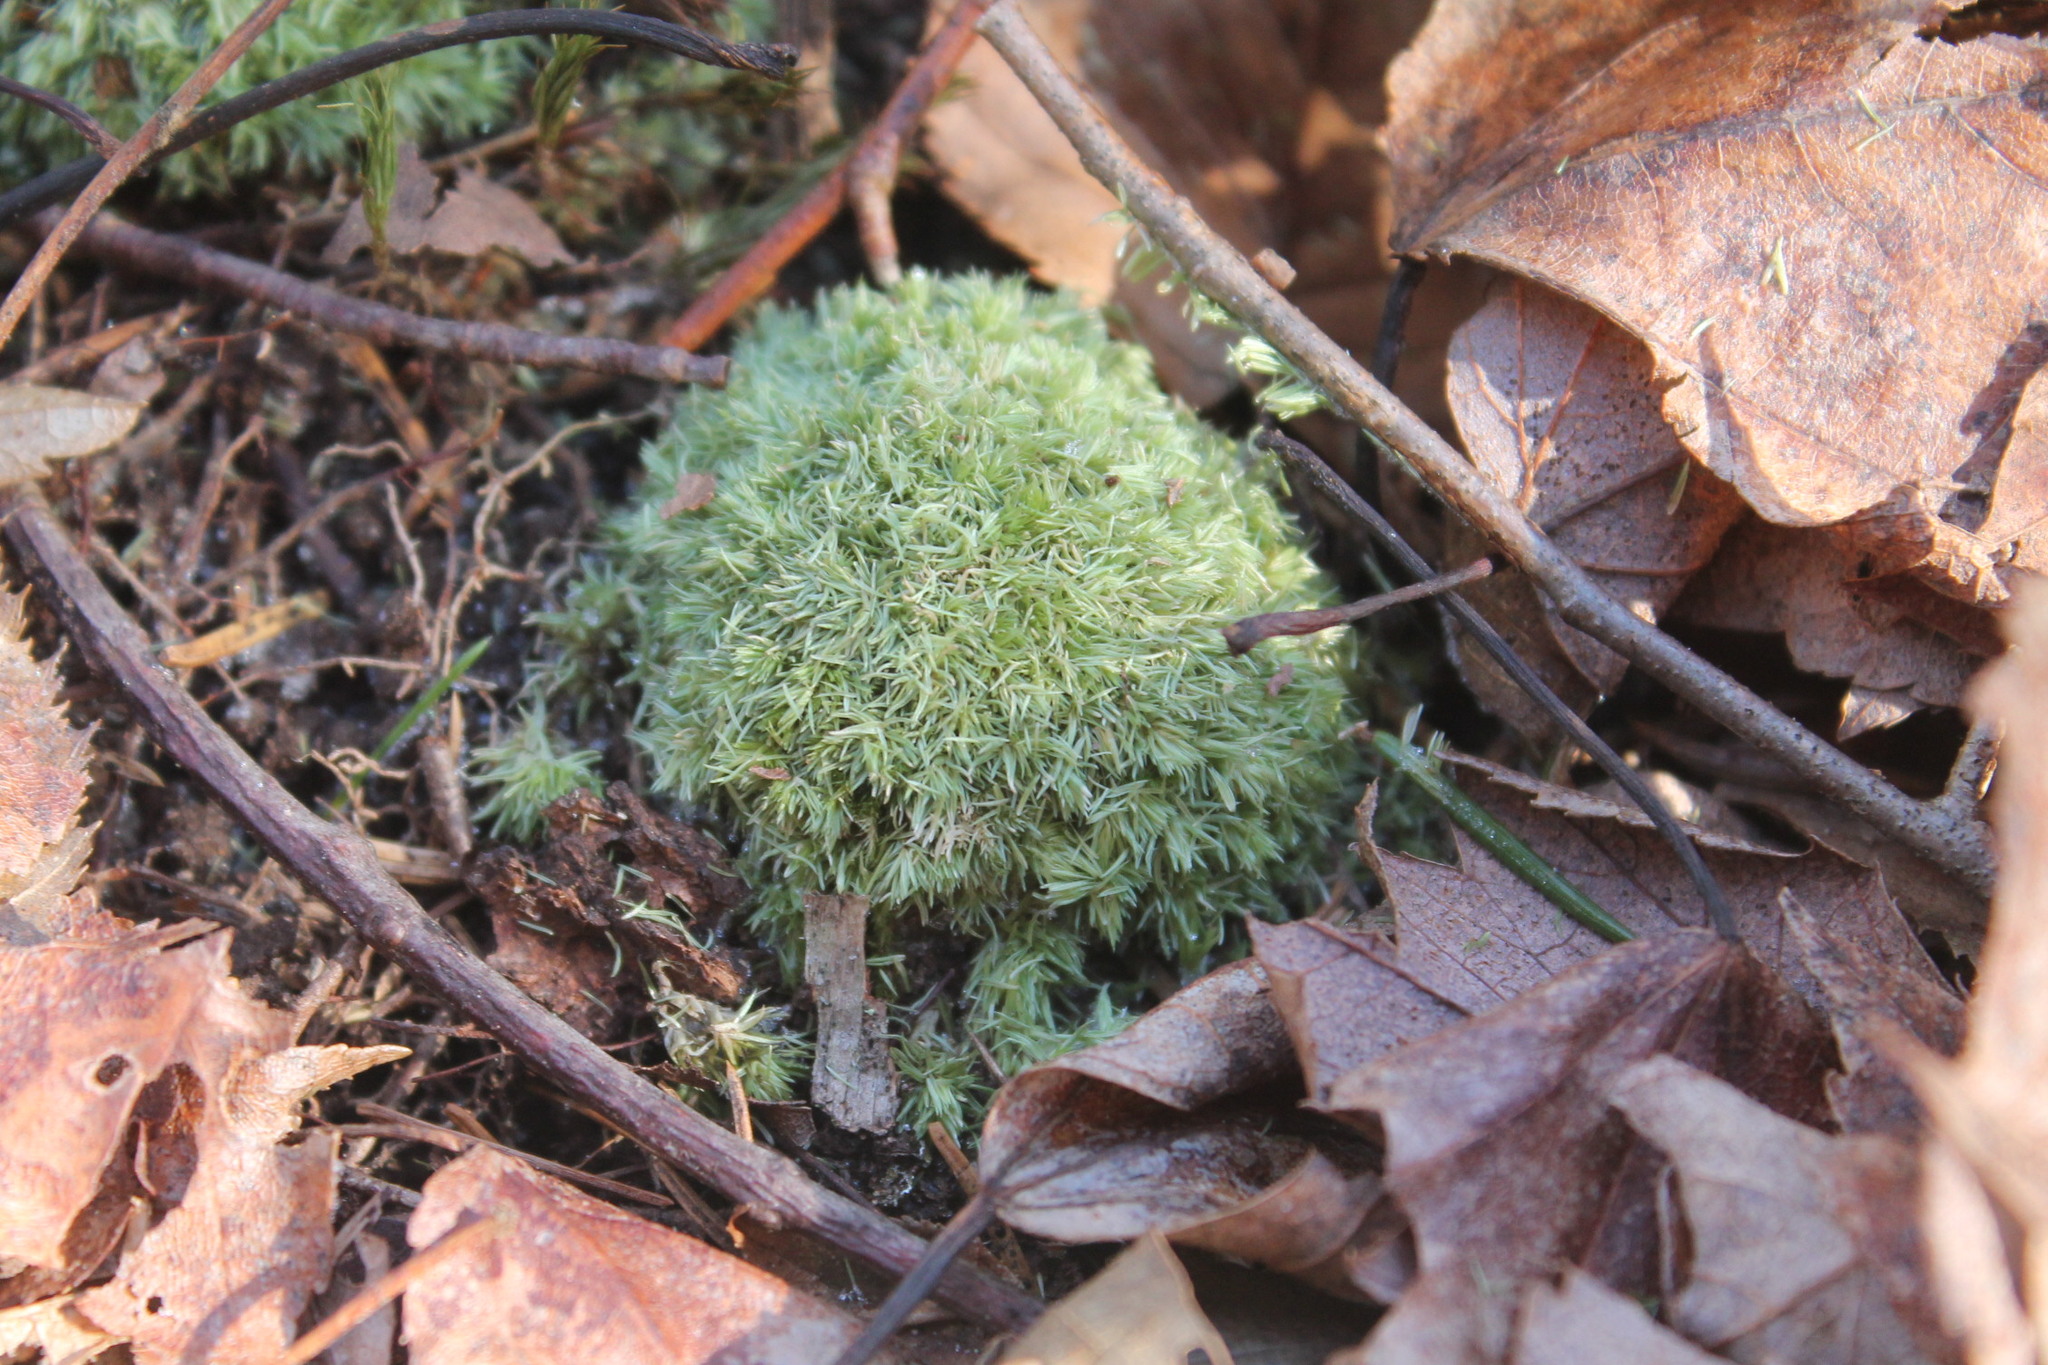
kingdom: Plantae
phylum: Bryophyta
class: Bryopsida
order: Dicranales
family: Leucobryaceae
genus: Leucobryum
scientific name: Leucobryum albidum
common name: White moss
